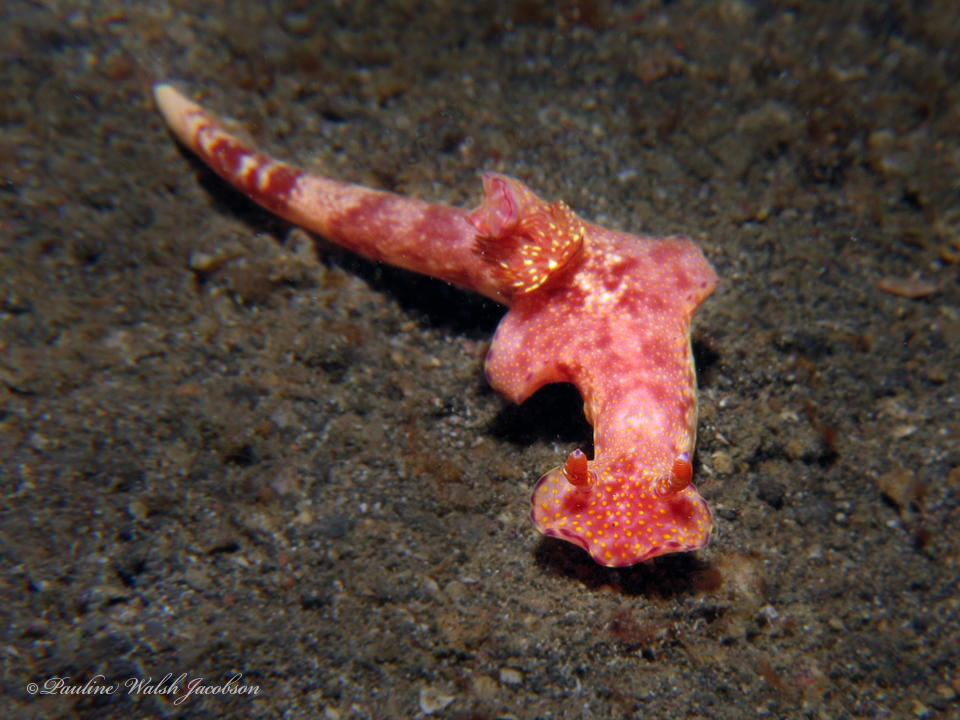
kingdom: Animalia
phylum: Mollusca
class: Gastropoda
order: Nudibranchia
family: Chromodorididae
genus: Ceratosoma
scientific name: Ceratosoma gracillimum
